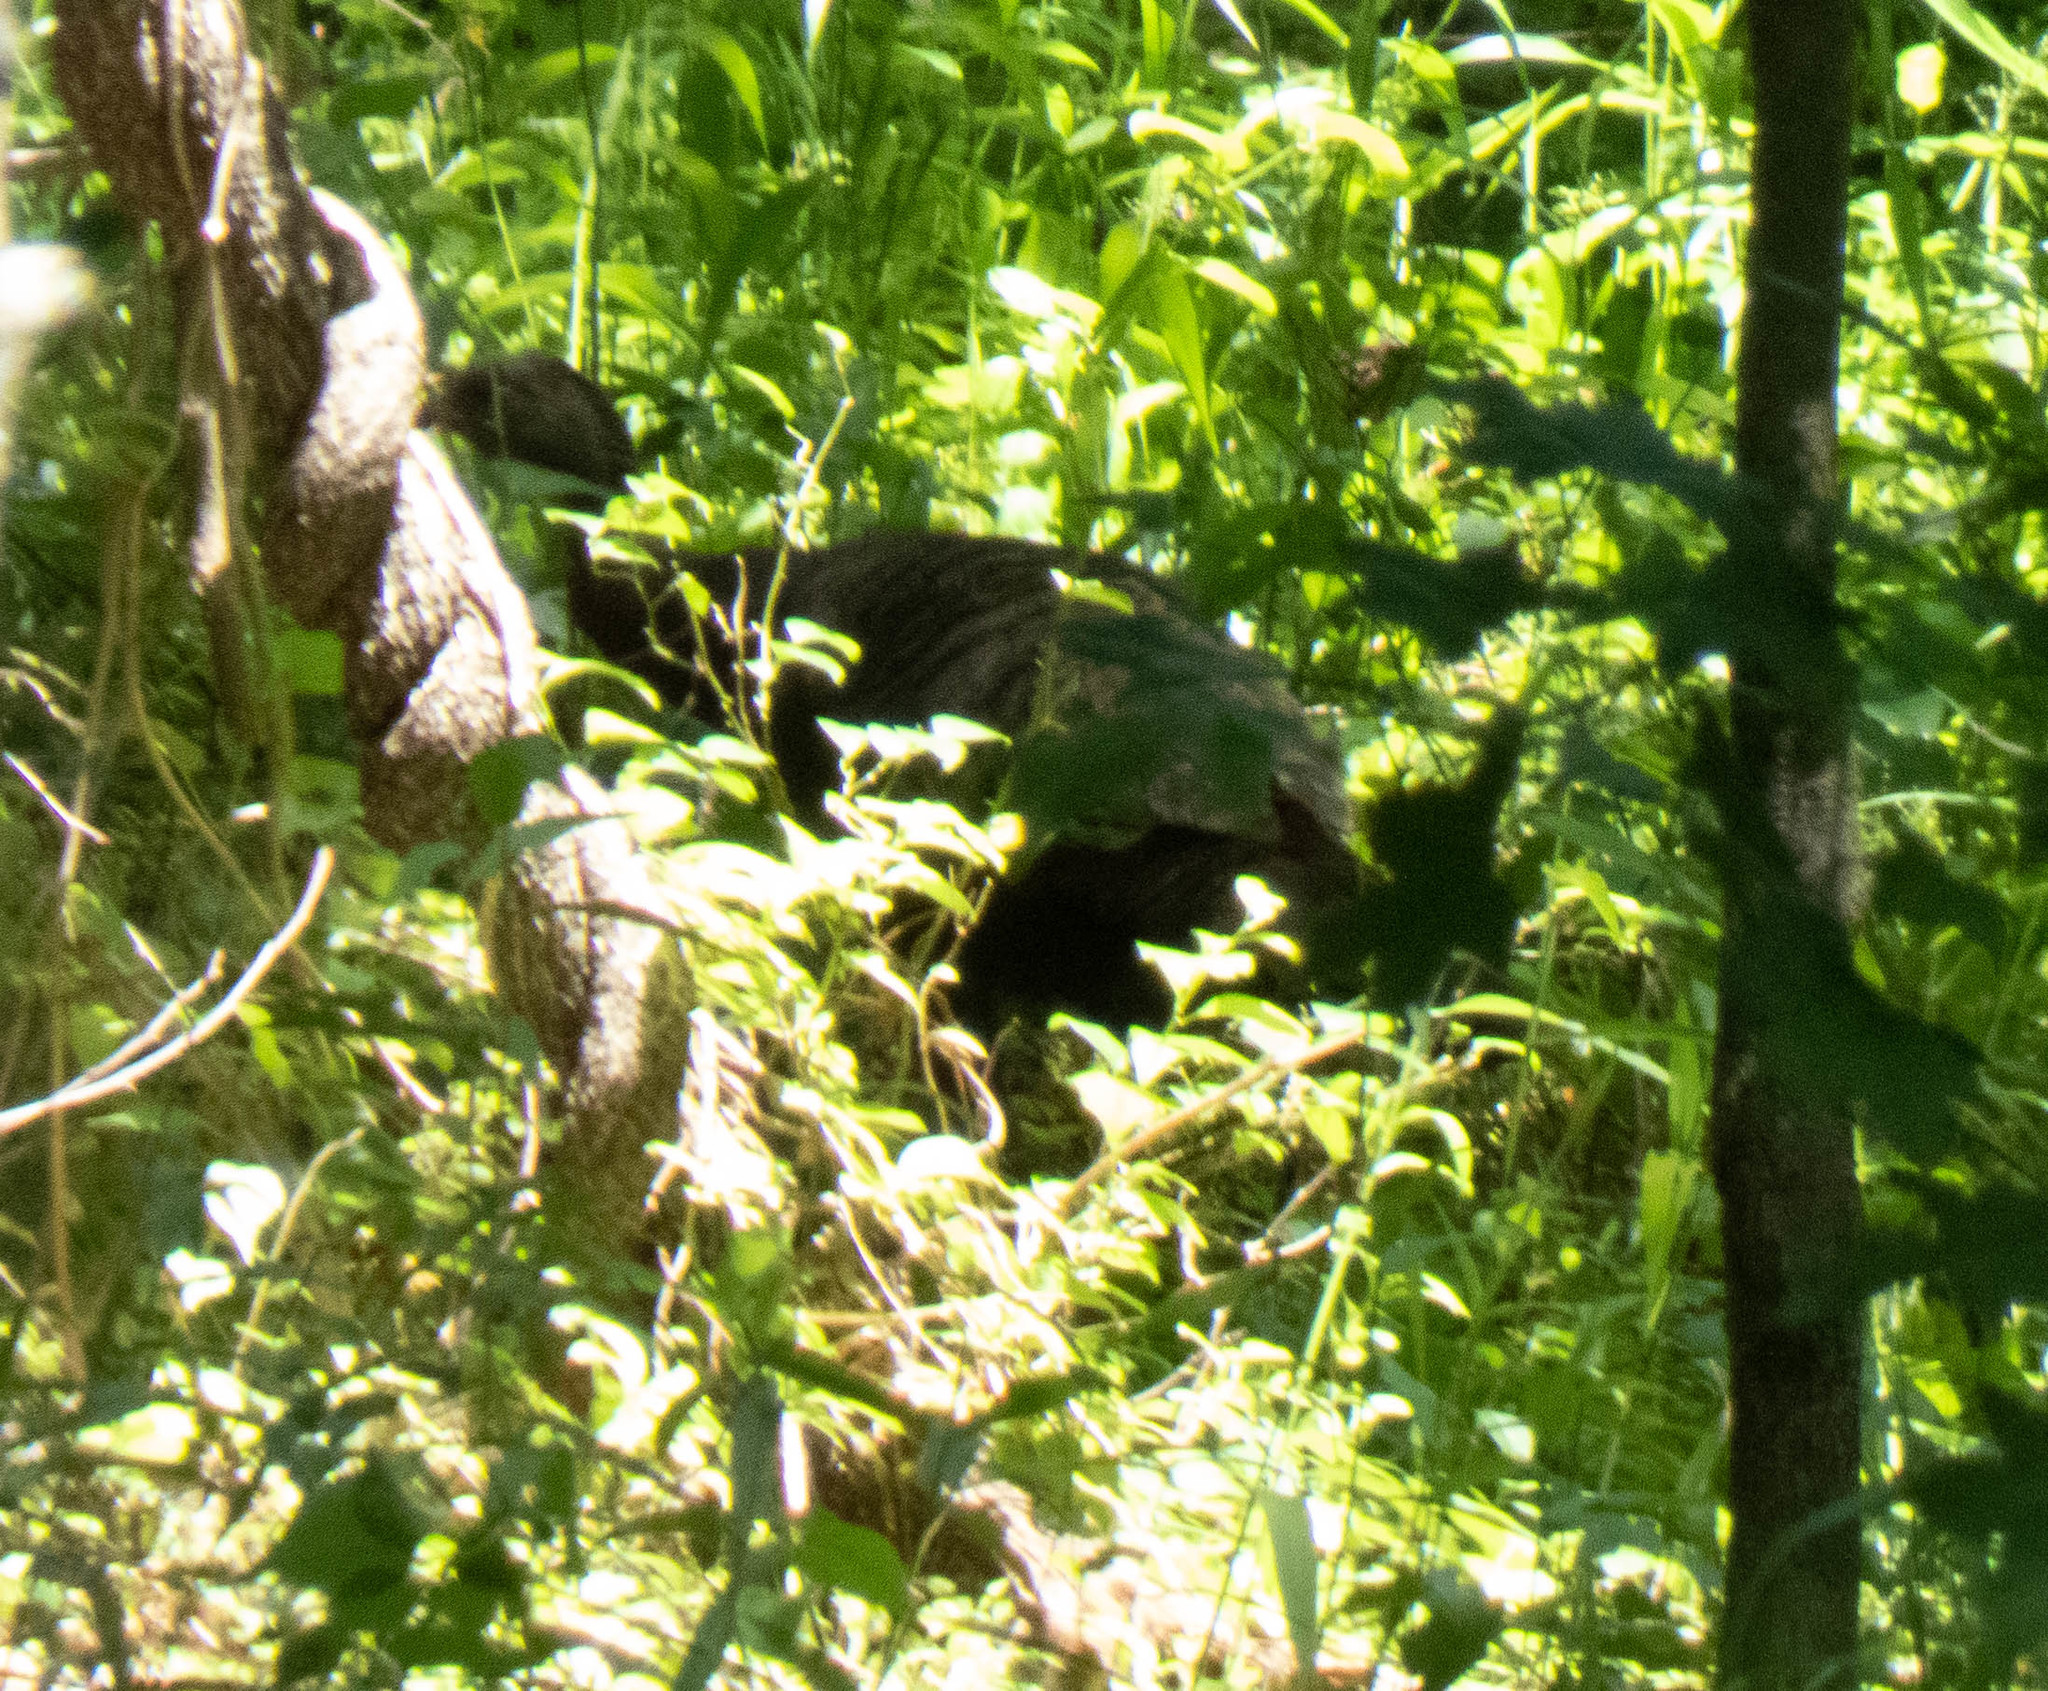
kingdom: Animalia
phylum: Chordata
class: Aves
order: Galliformes
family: Phasianidae
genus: Meleagris
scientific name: Meleagris gallopavo
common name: Wild turkey
